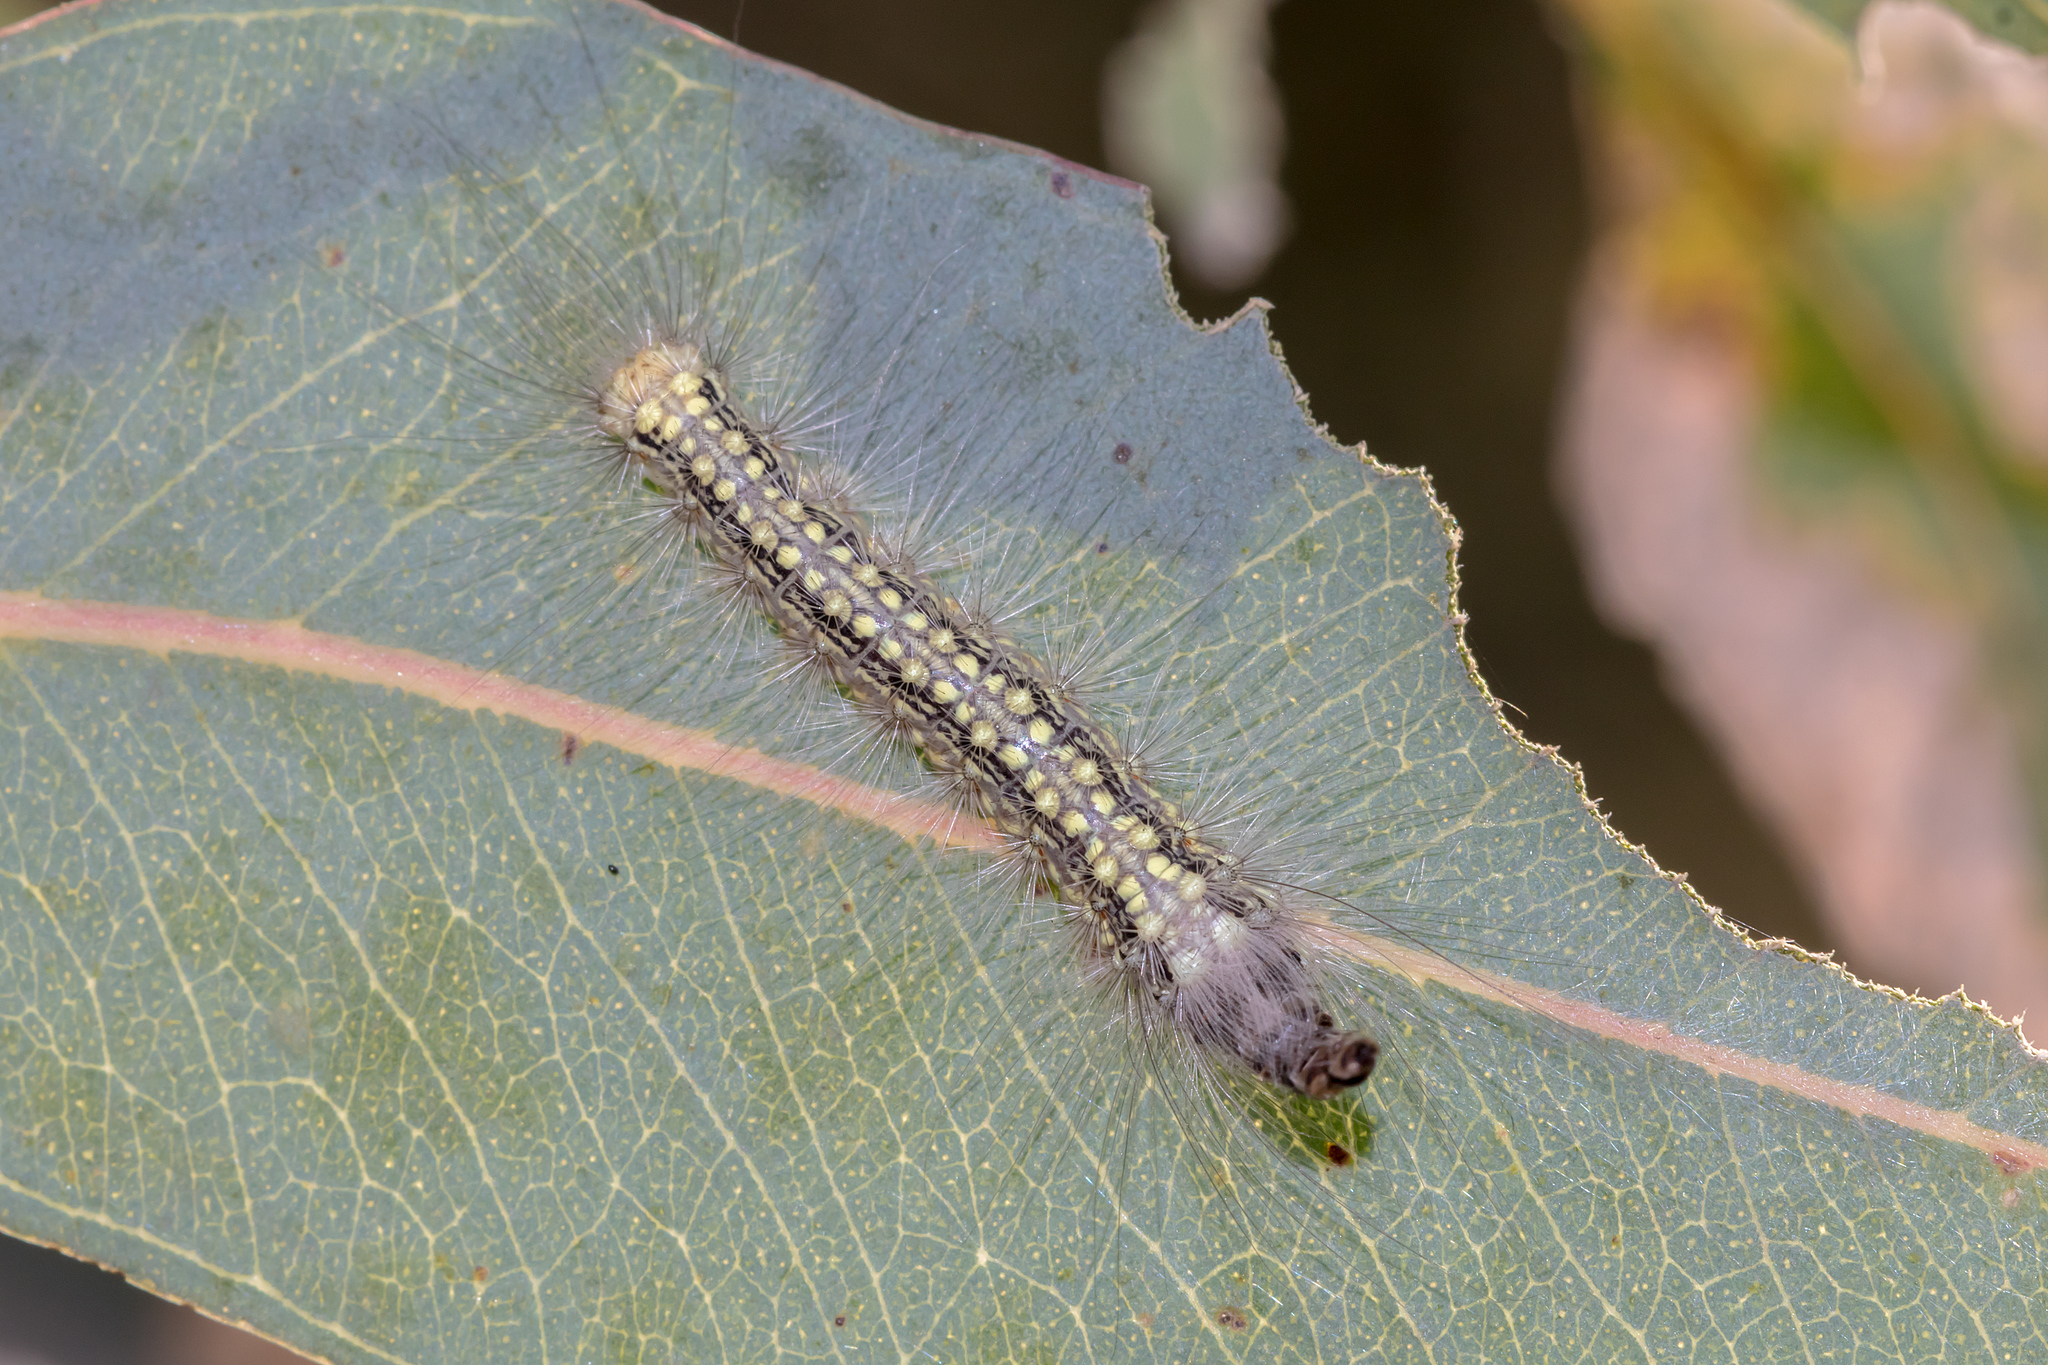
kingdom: Animalia
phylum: Arthropoda
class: Insecta
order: Lepidoptera
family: Nolidae
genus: Uraba
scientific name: Uraba lugens
